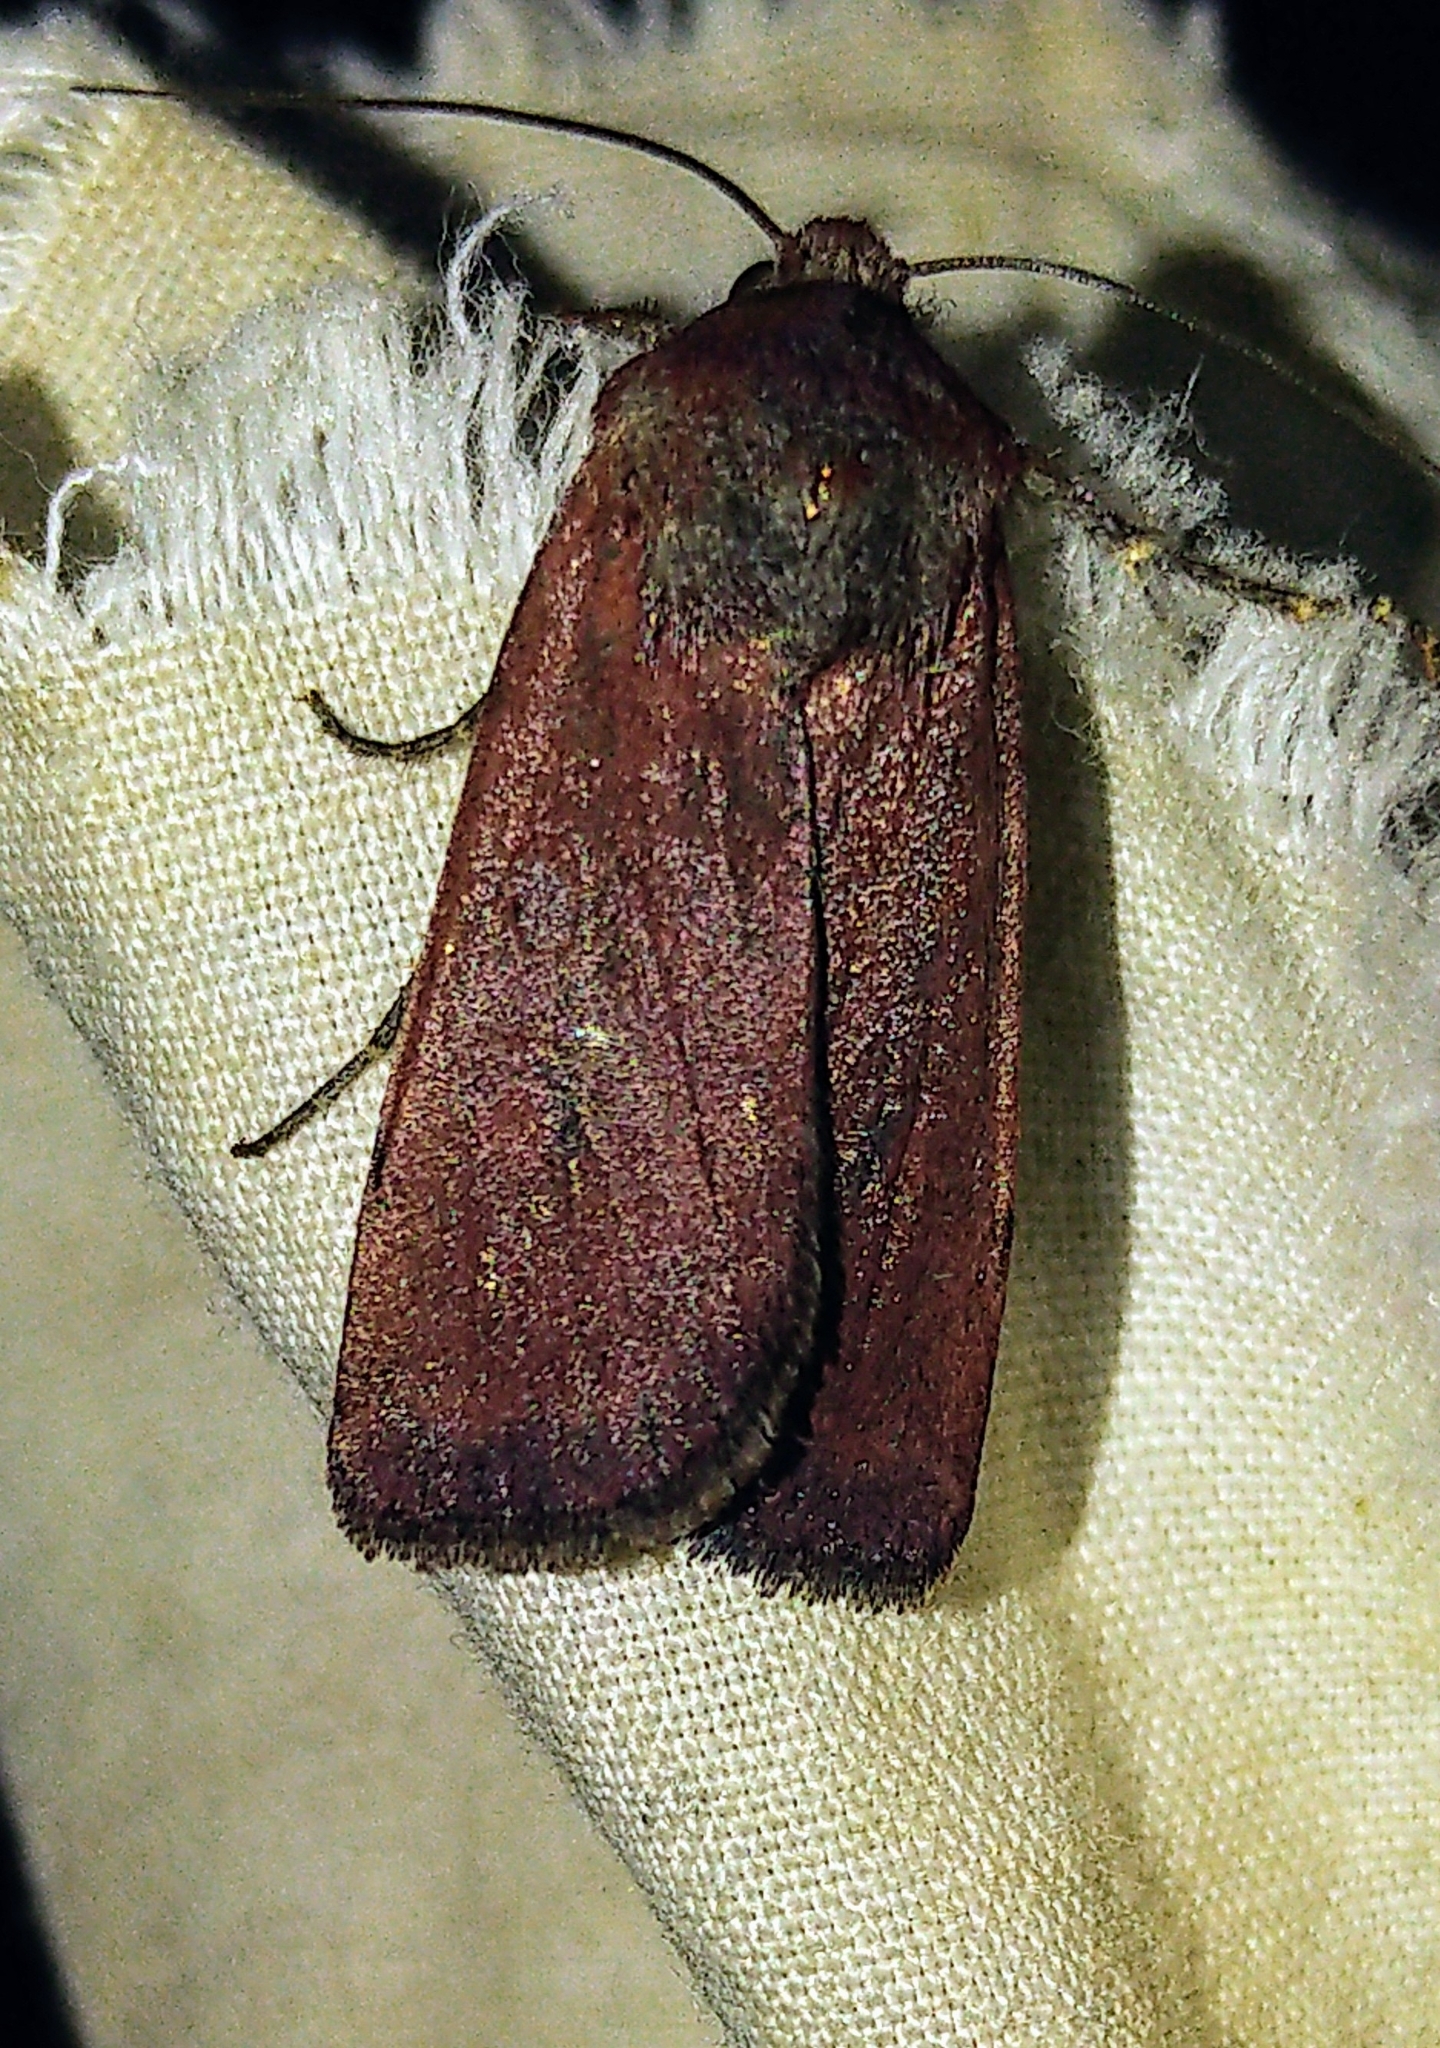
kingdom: Animalia
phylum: Arthropoda
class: Insecta
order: Lepidoptera
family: Noctuidae
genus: Euxoa
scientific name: Euxoa perpolita
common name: Polished dart
